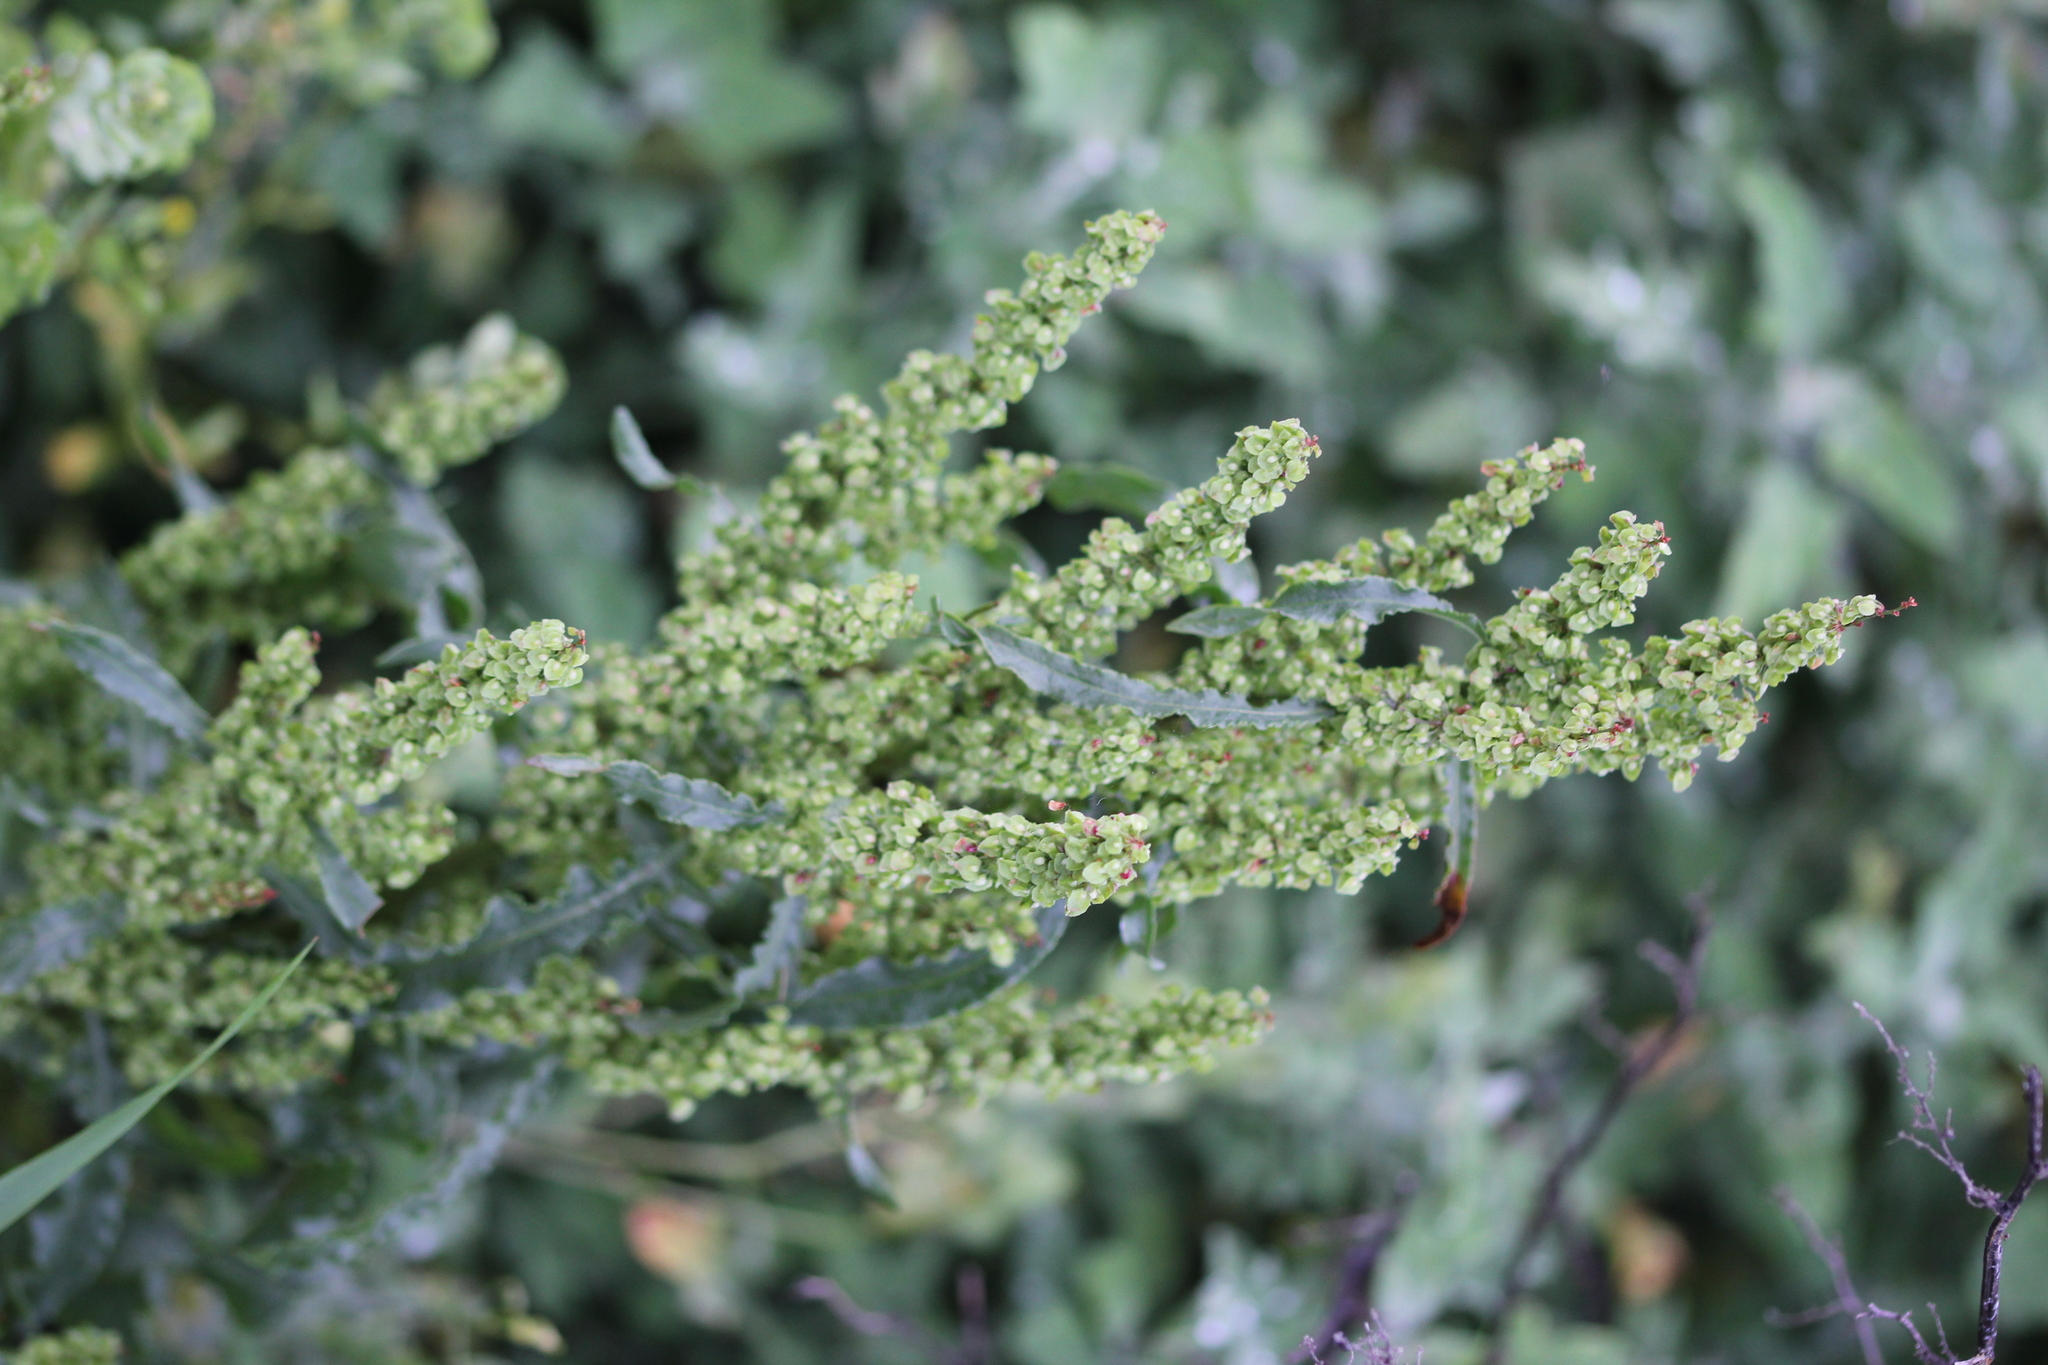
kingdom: Plantae
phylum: Tracheophyta
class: Magnoliopsida
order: Caryophyllales
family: Polygonaceae
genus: Rumex
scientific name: Rumex crispus
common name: Curled dock
